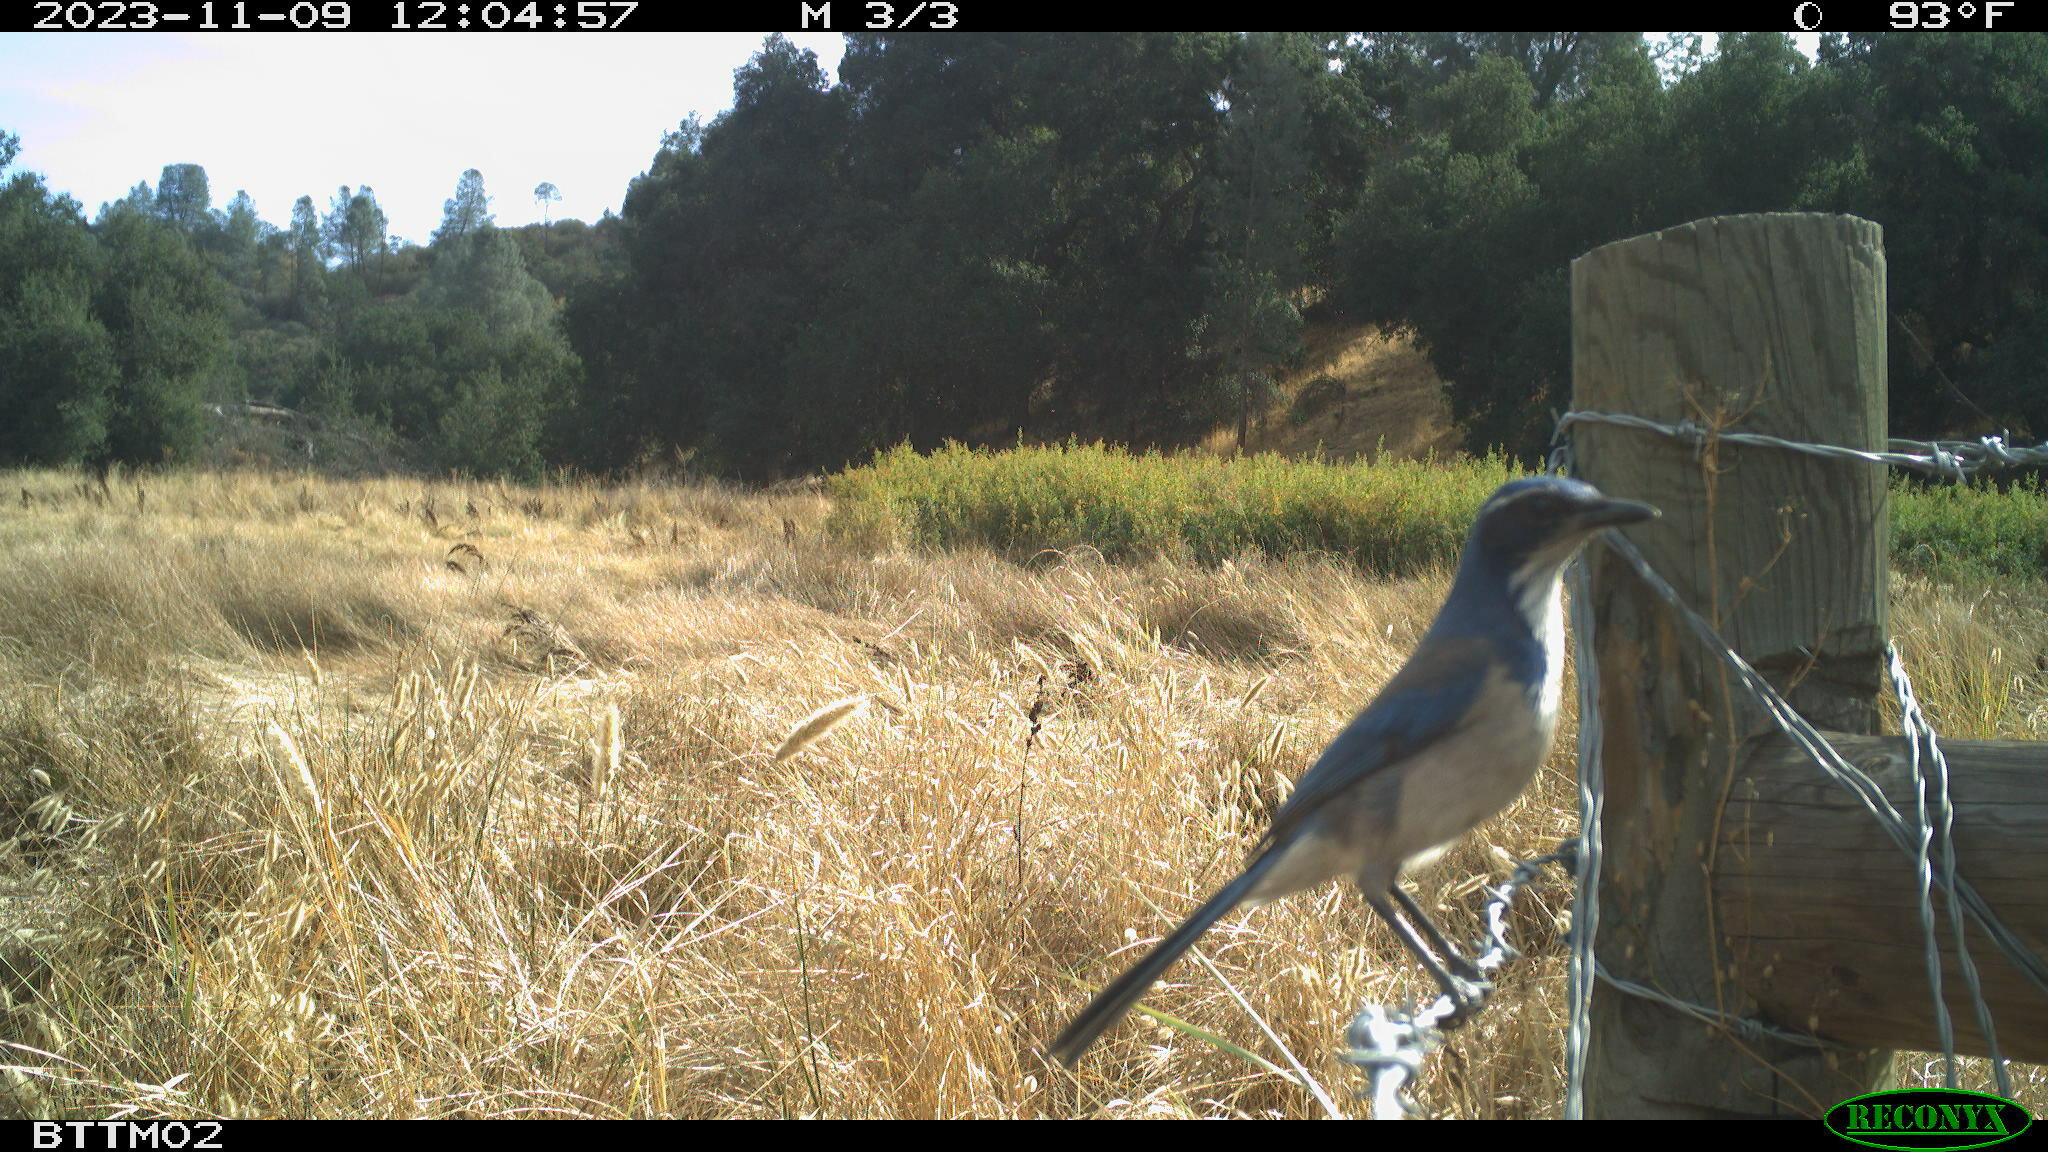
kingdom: Animalia
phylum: Chordata
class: Aves
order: Passeriformes
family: Corvidae
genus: Aphelocoma
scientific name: Aphelocoma californica
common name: California scrub-jay
